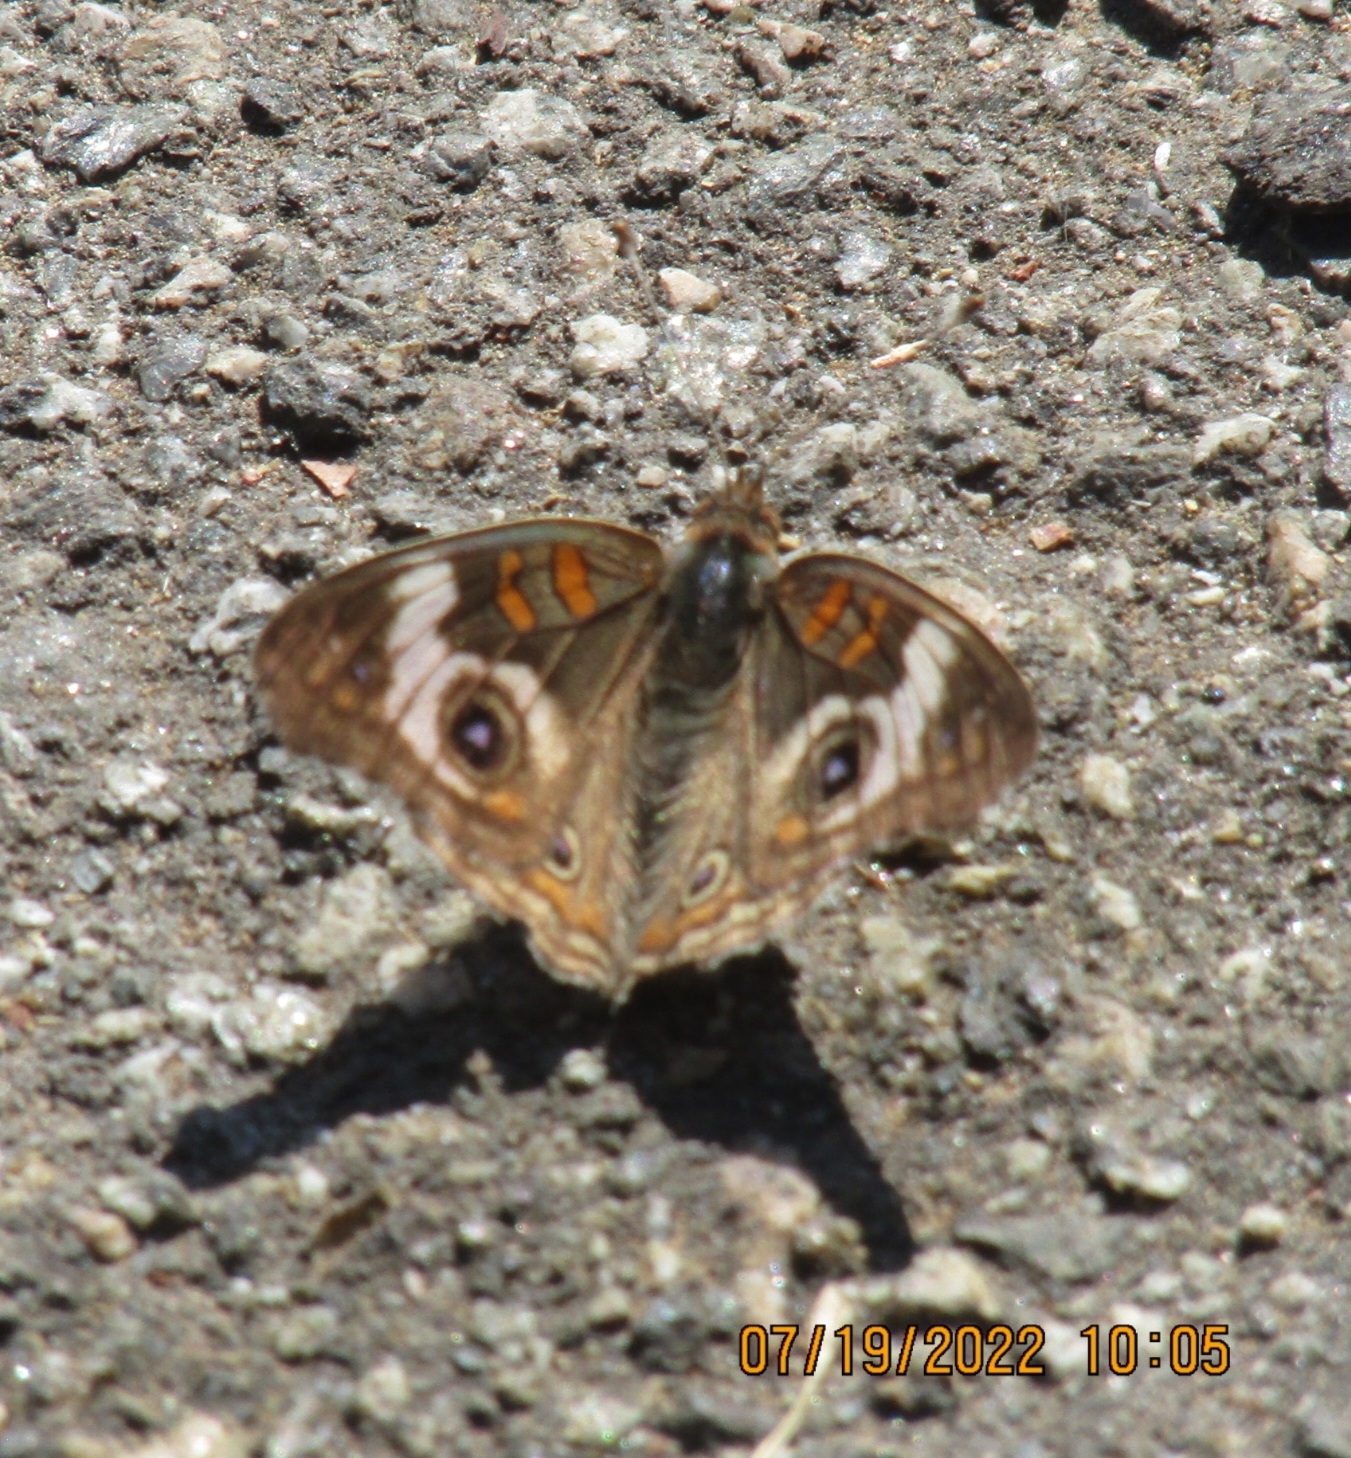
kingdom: Animalia
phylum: Arthropoda
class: Insecta
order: Lepidoptera
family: Nymphalidae
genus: Junonia
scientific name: Junonia grisea
